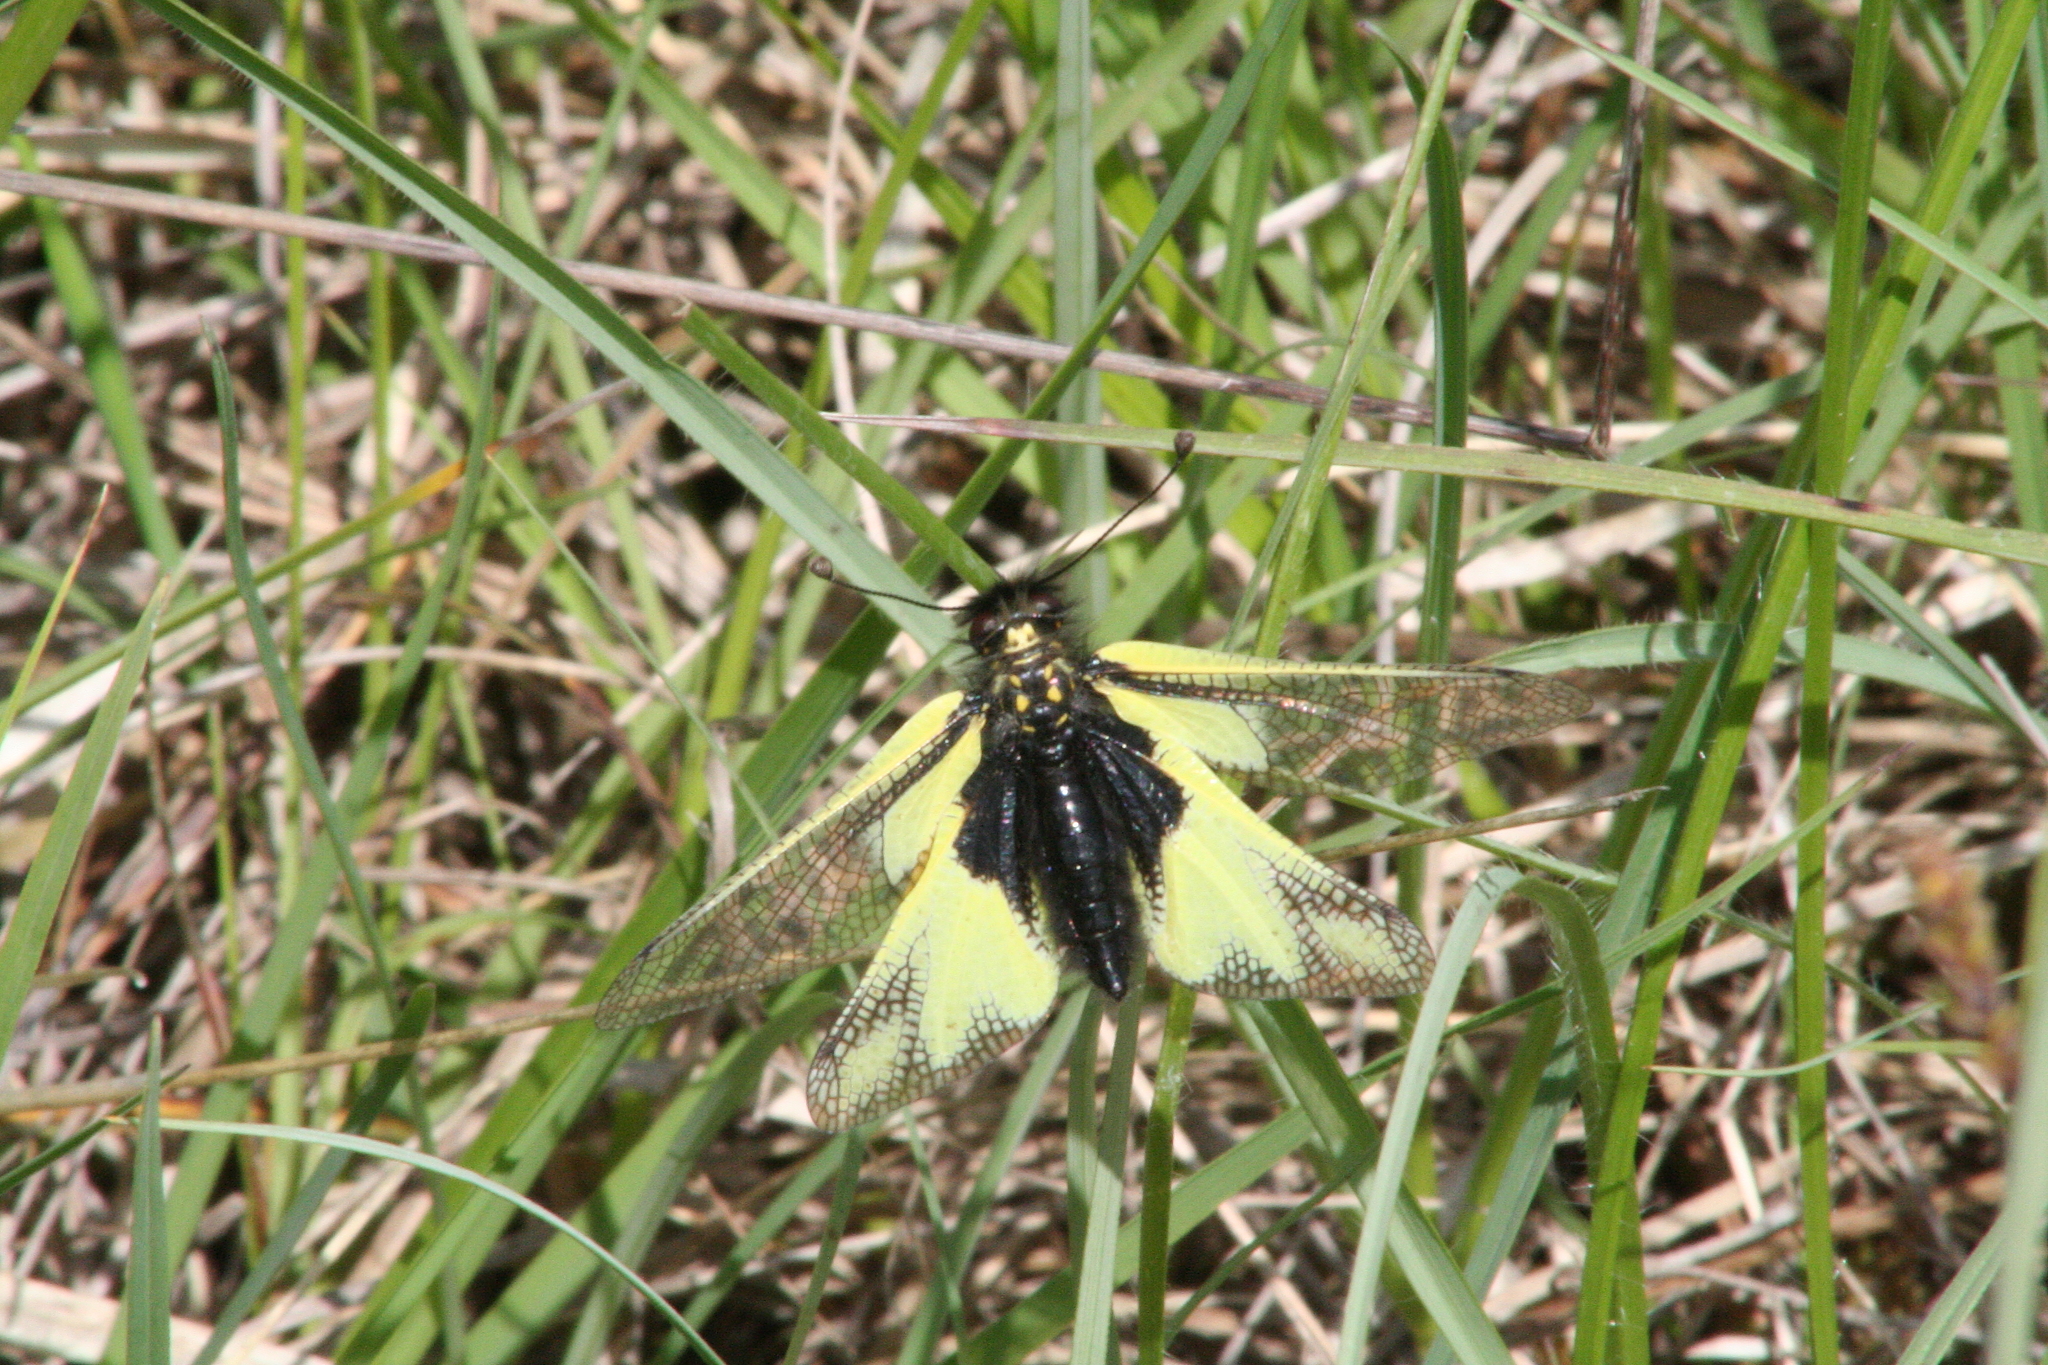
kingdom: Animalia
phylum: Arthropoda
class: Insecta
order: Neuroptera
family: Ascalaphidae
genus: Libelloides
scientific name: Libelloides coccajus
